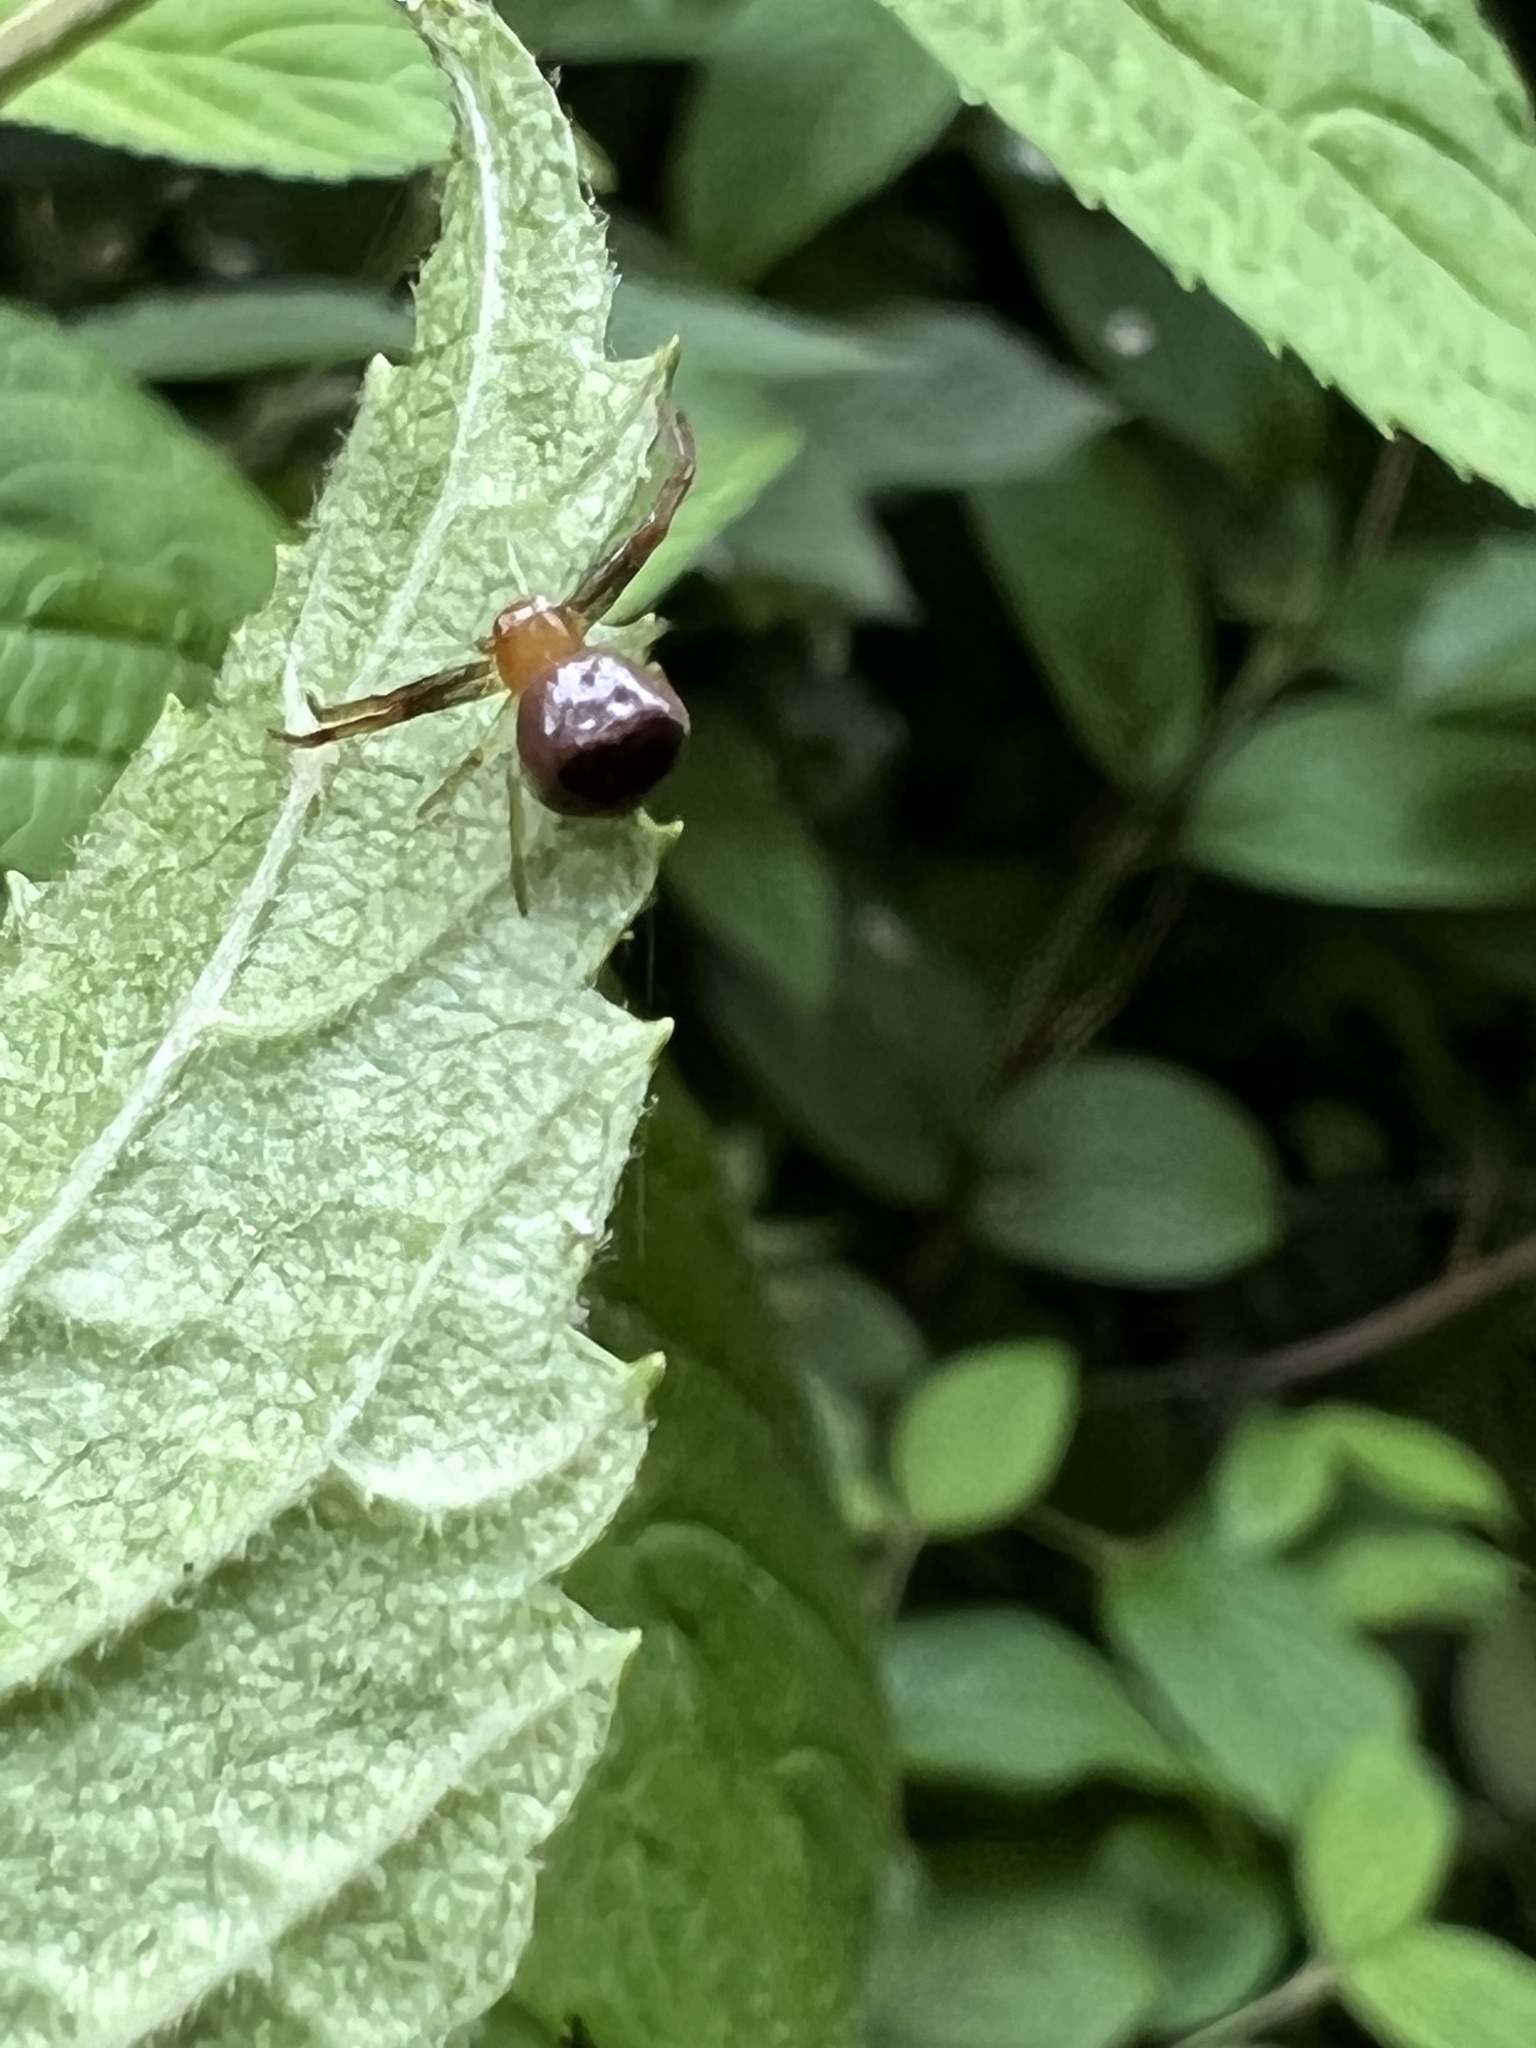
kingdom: Animalia
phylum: Arthropoda
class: Arachnida
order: Araneae
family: Thomisidae
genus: Synema
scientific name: Synema parvulum
